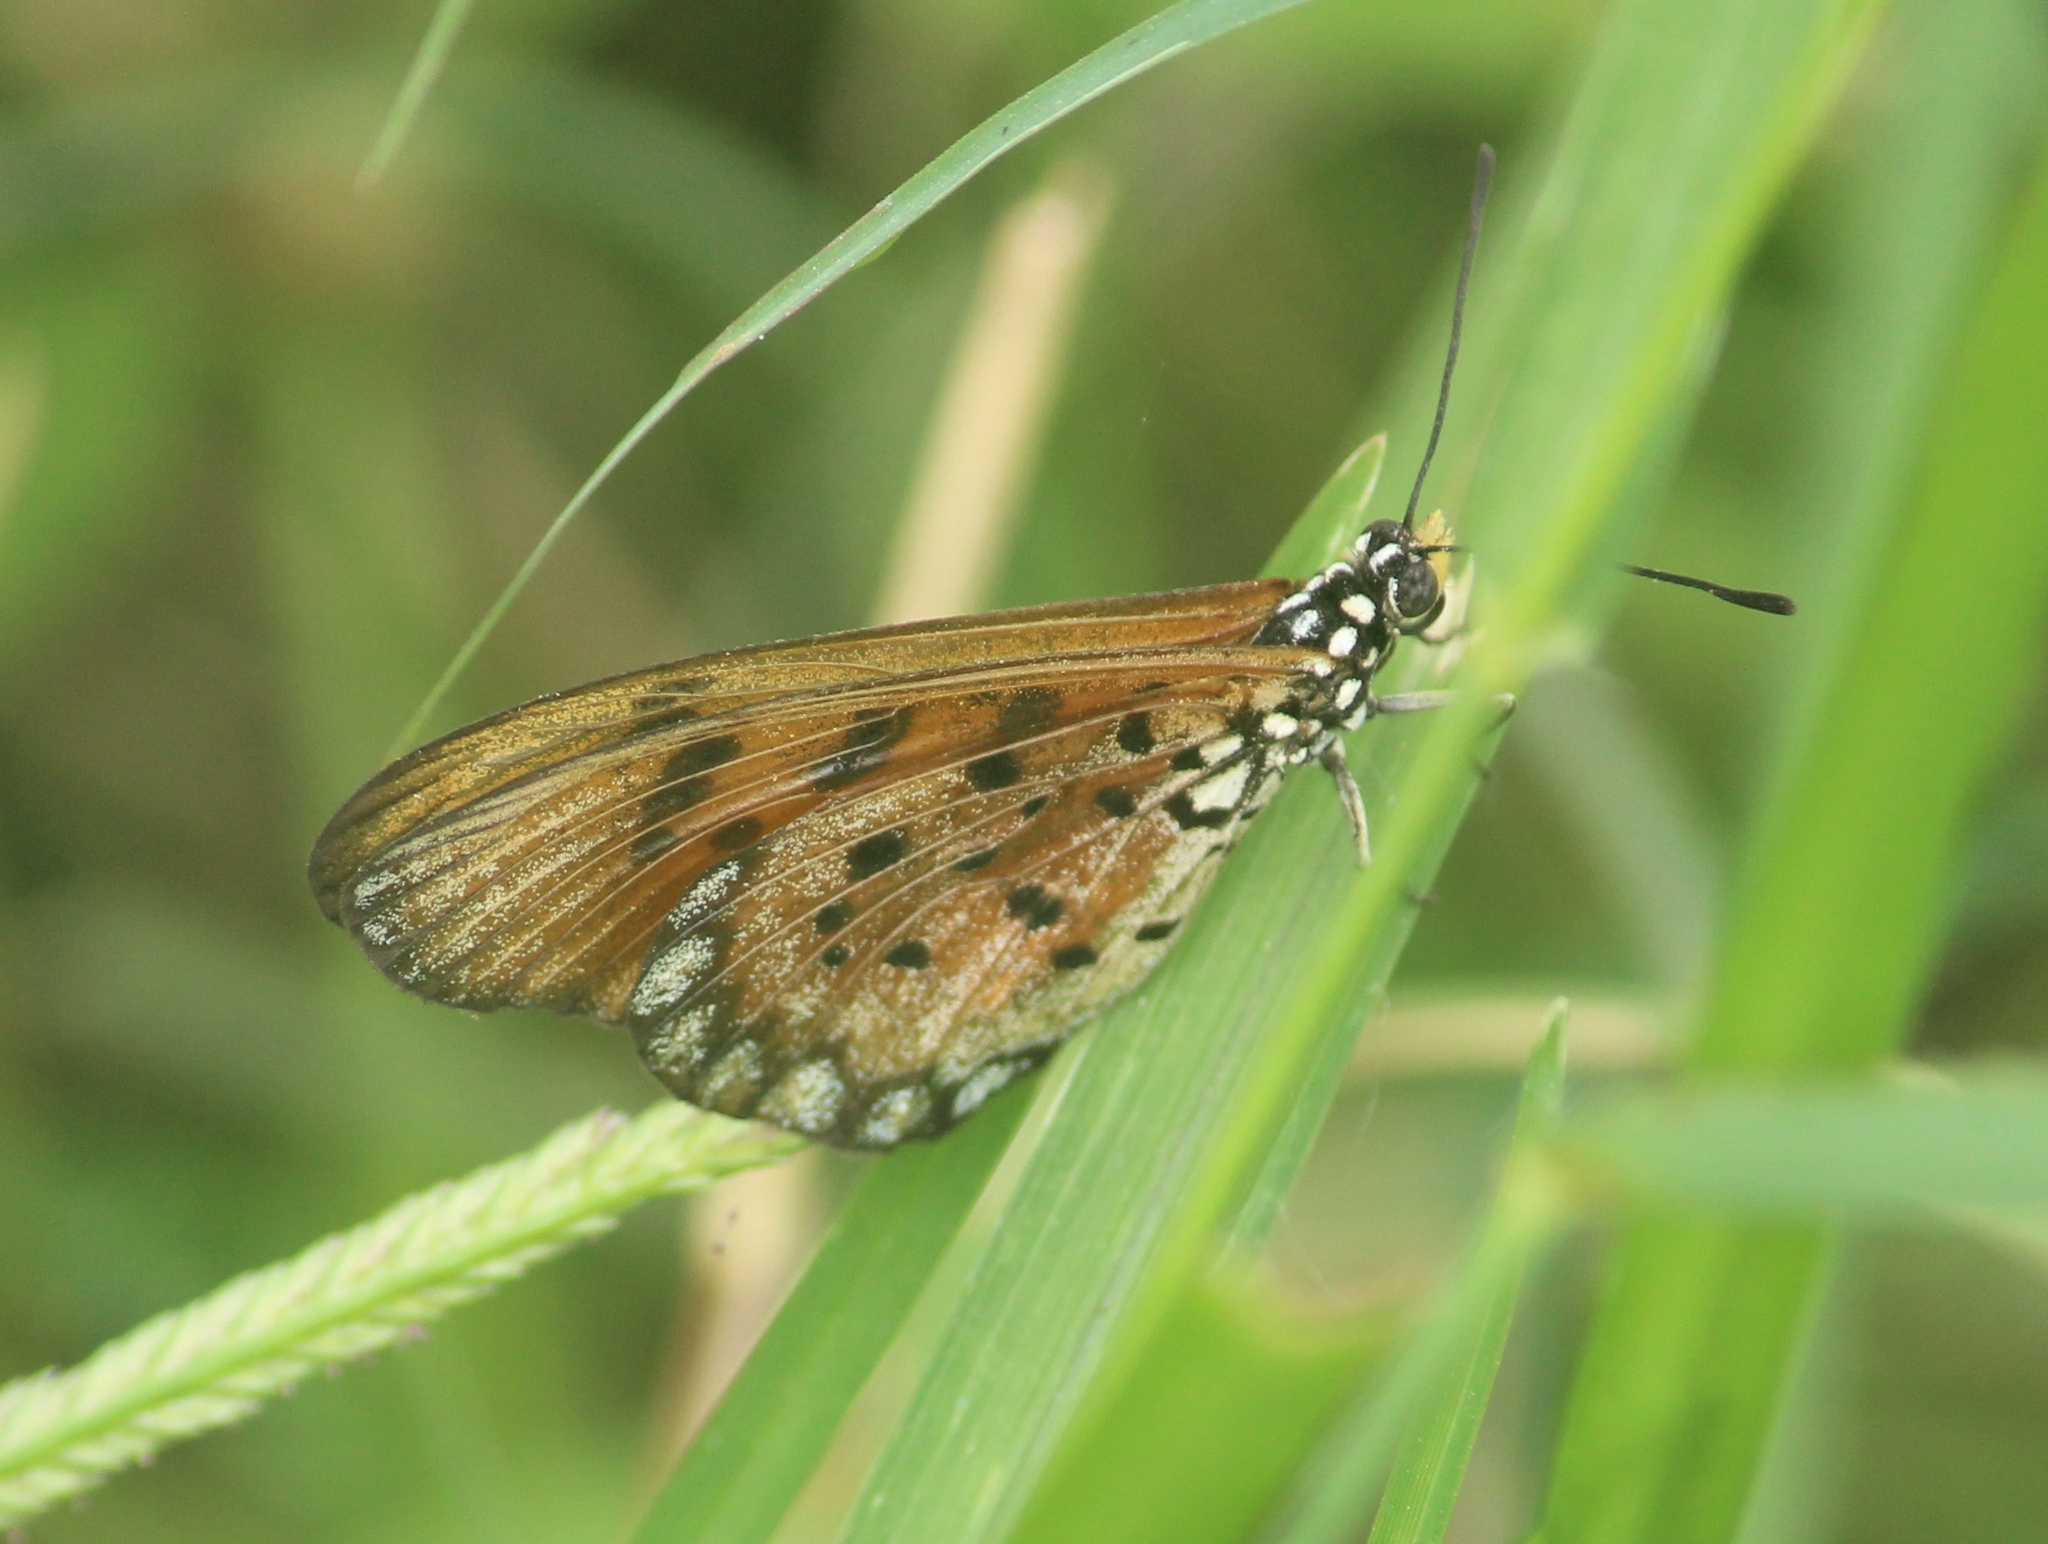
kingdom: Animalia
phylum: Arthropoda
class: Insecta
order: Lepidoptera
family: Nymphalidae
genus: Acraea
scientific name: Acraea terpsicore
